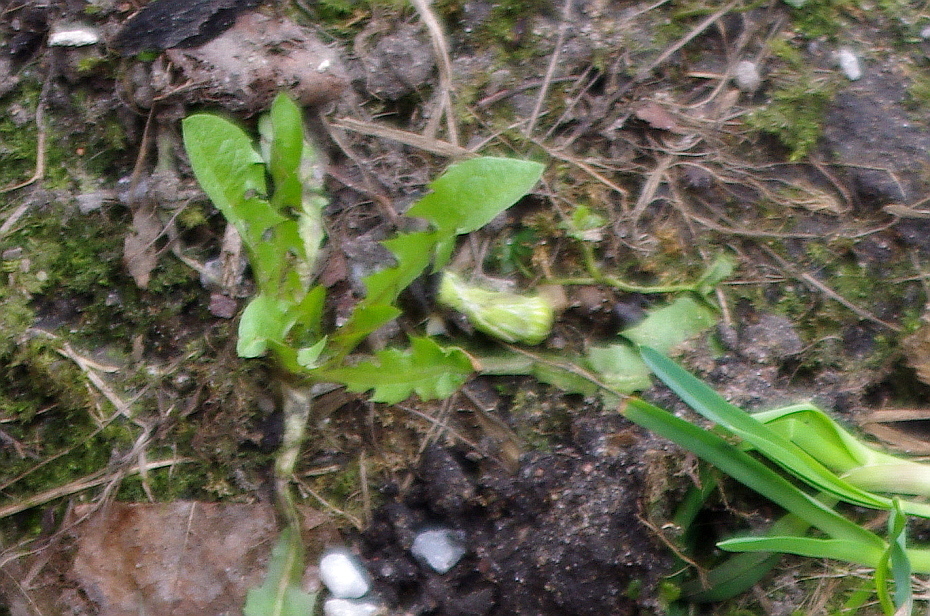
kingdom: Plantae
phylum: Tracheophyta
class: Magnoliopsida
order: Asterales
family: Asteraceae
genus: Taraxacum
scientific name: Taraxacum officinale
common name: Common dandelion
